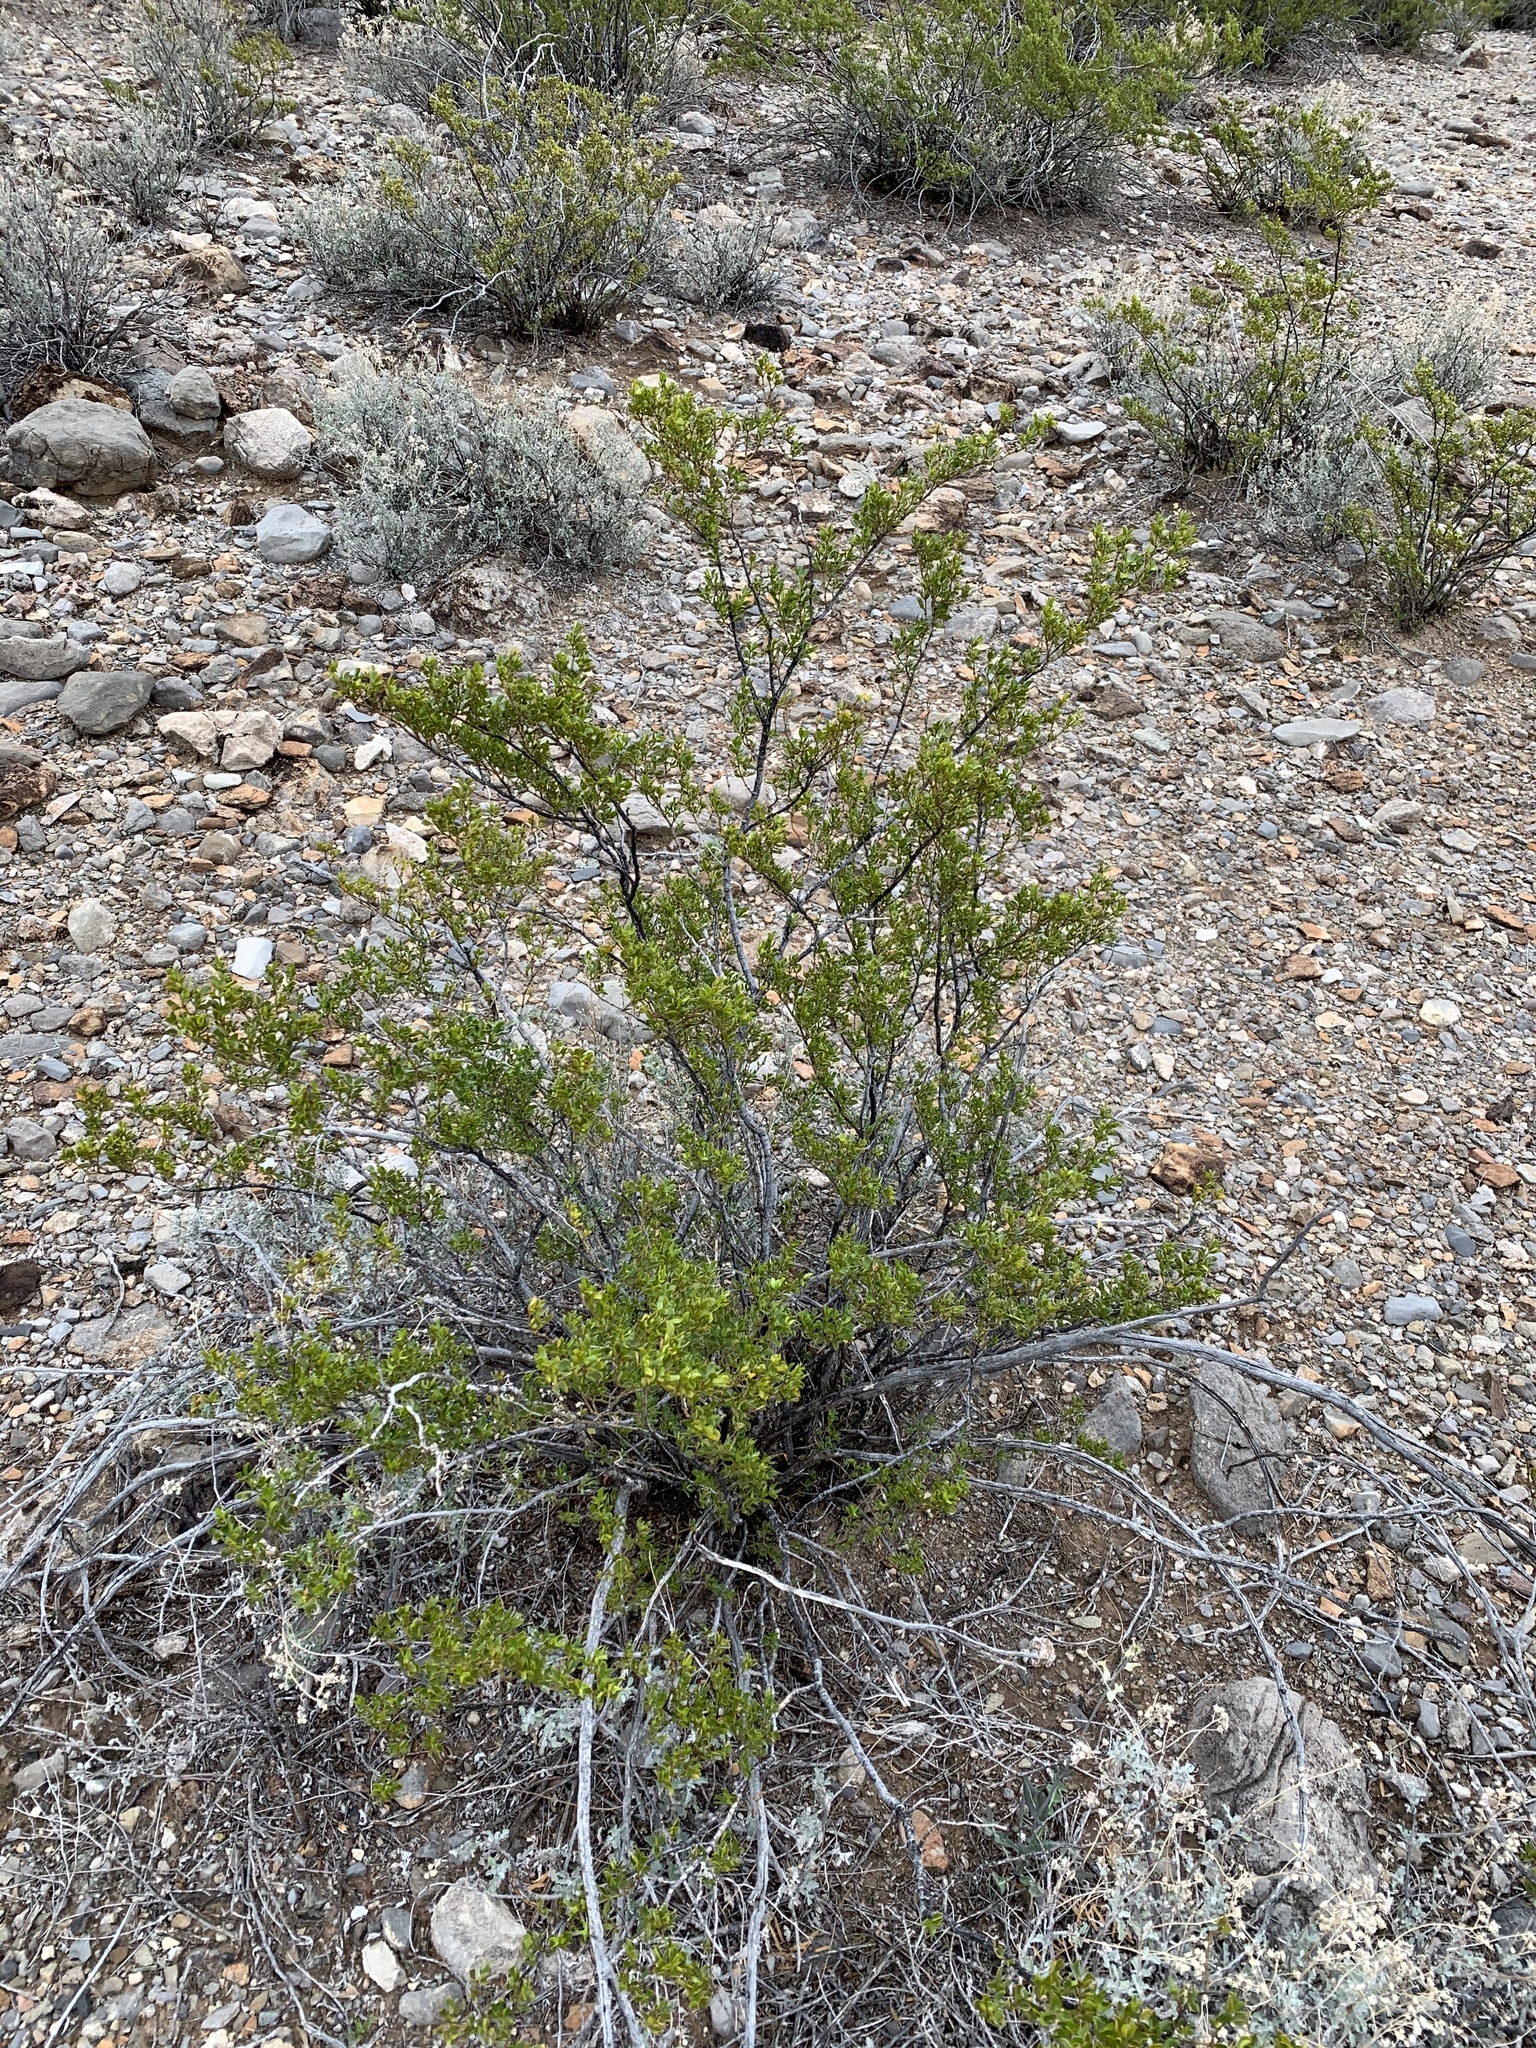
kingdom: Plantae
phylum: Tracheophyta
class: Magnoliopsida
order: Zygophyllales
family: Zygophyllaceae
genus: Larrea
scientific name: Larrea tridentata
